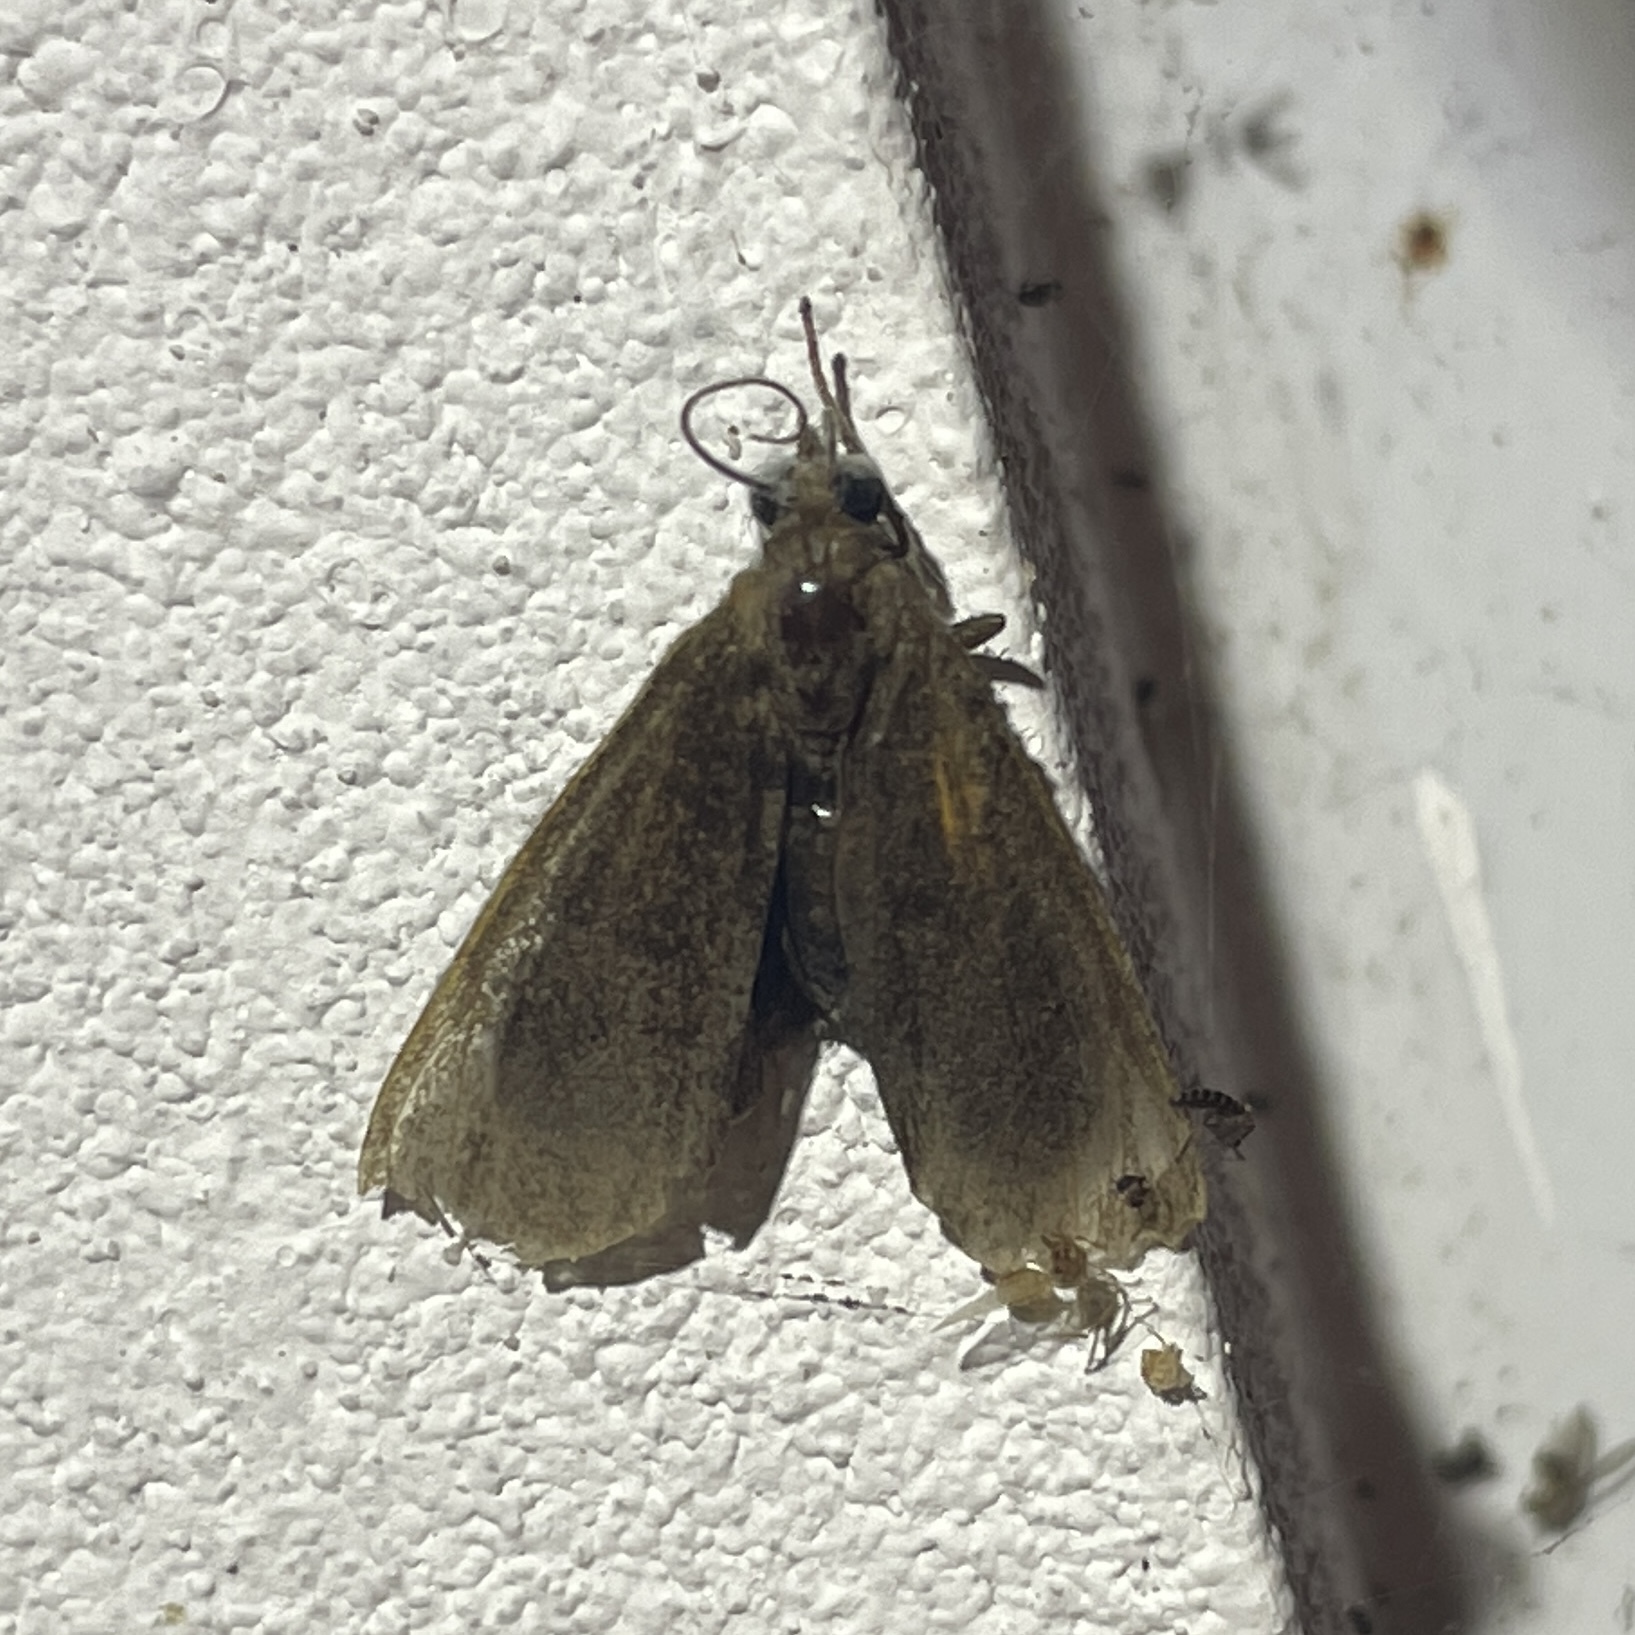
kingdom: Animalia
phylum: Arthropoda
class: Insecta
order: Lepidoptera
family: Erebidae
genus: Virbia
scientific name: Virbia medarda
